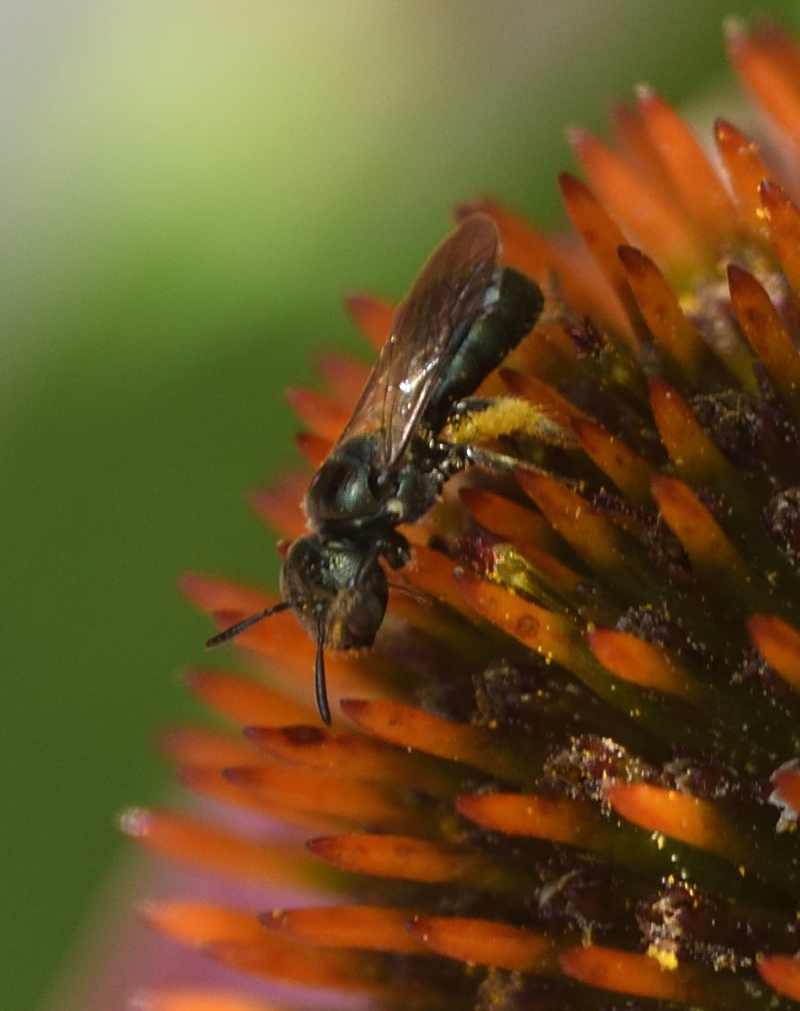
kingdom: Animalia
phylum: Arthropoda
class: Insecta
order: Hymenoptera
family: Apidae
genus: Zadontomerus
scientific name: Zadontomerus
